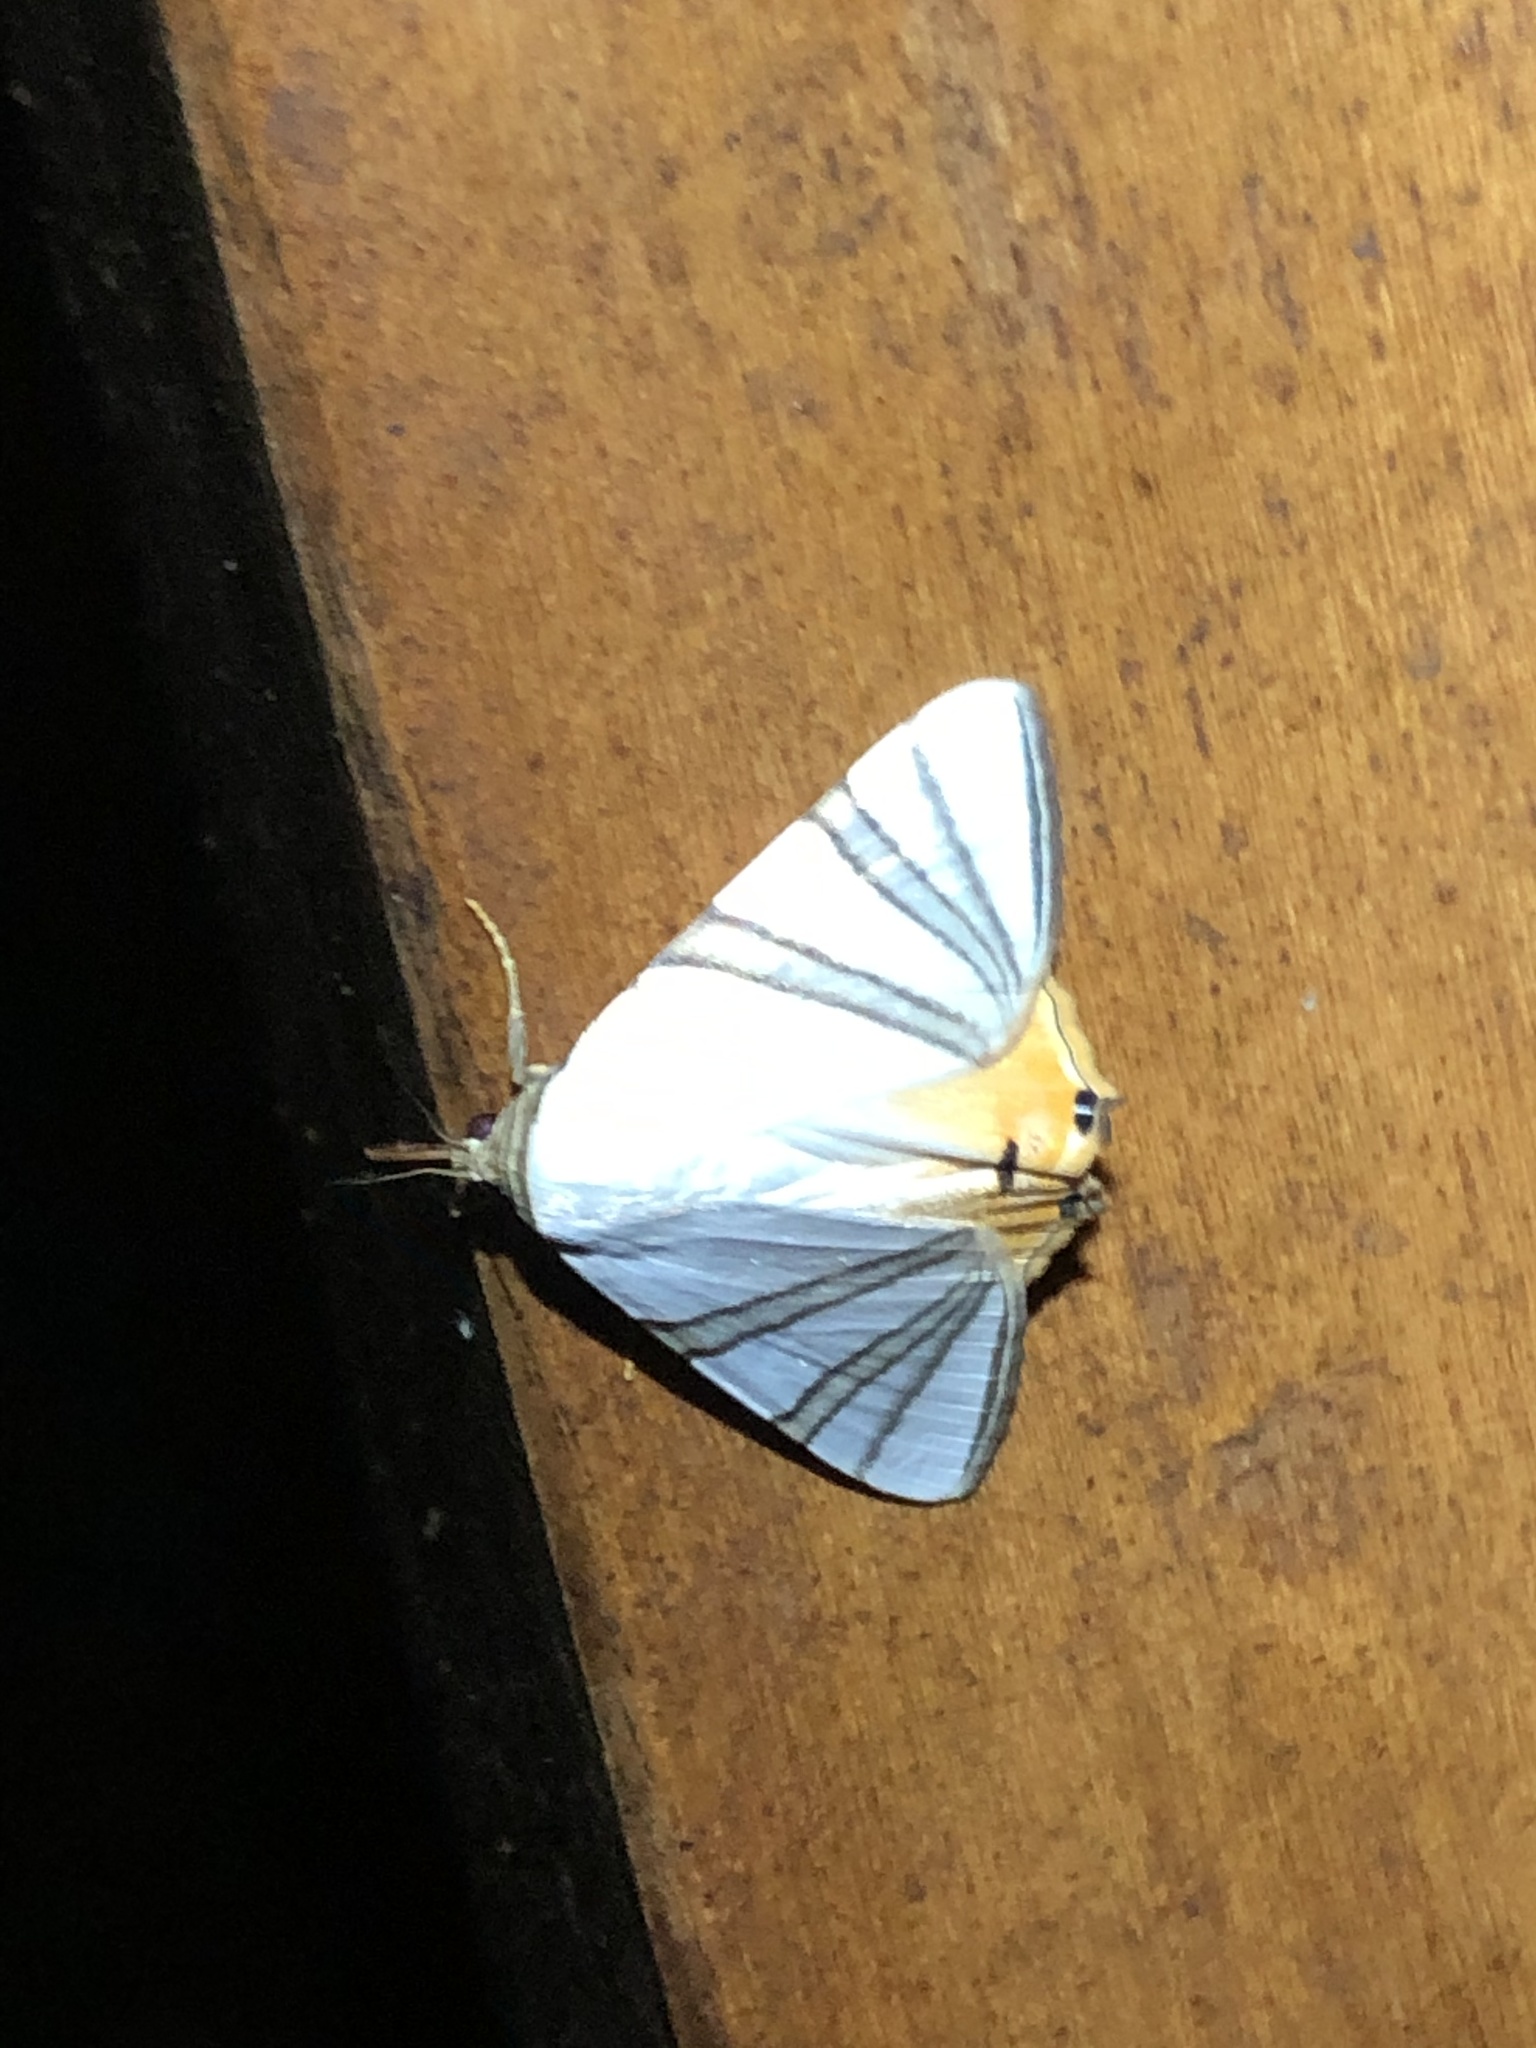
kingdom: Animalia
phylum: Arthropoda
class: Insecta
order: Lepidoptera
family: Erebidae
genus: Eulepidotis
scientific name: Eulepidotis geminata
